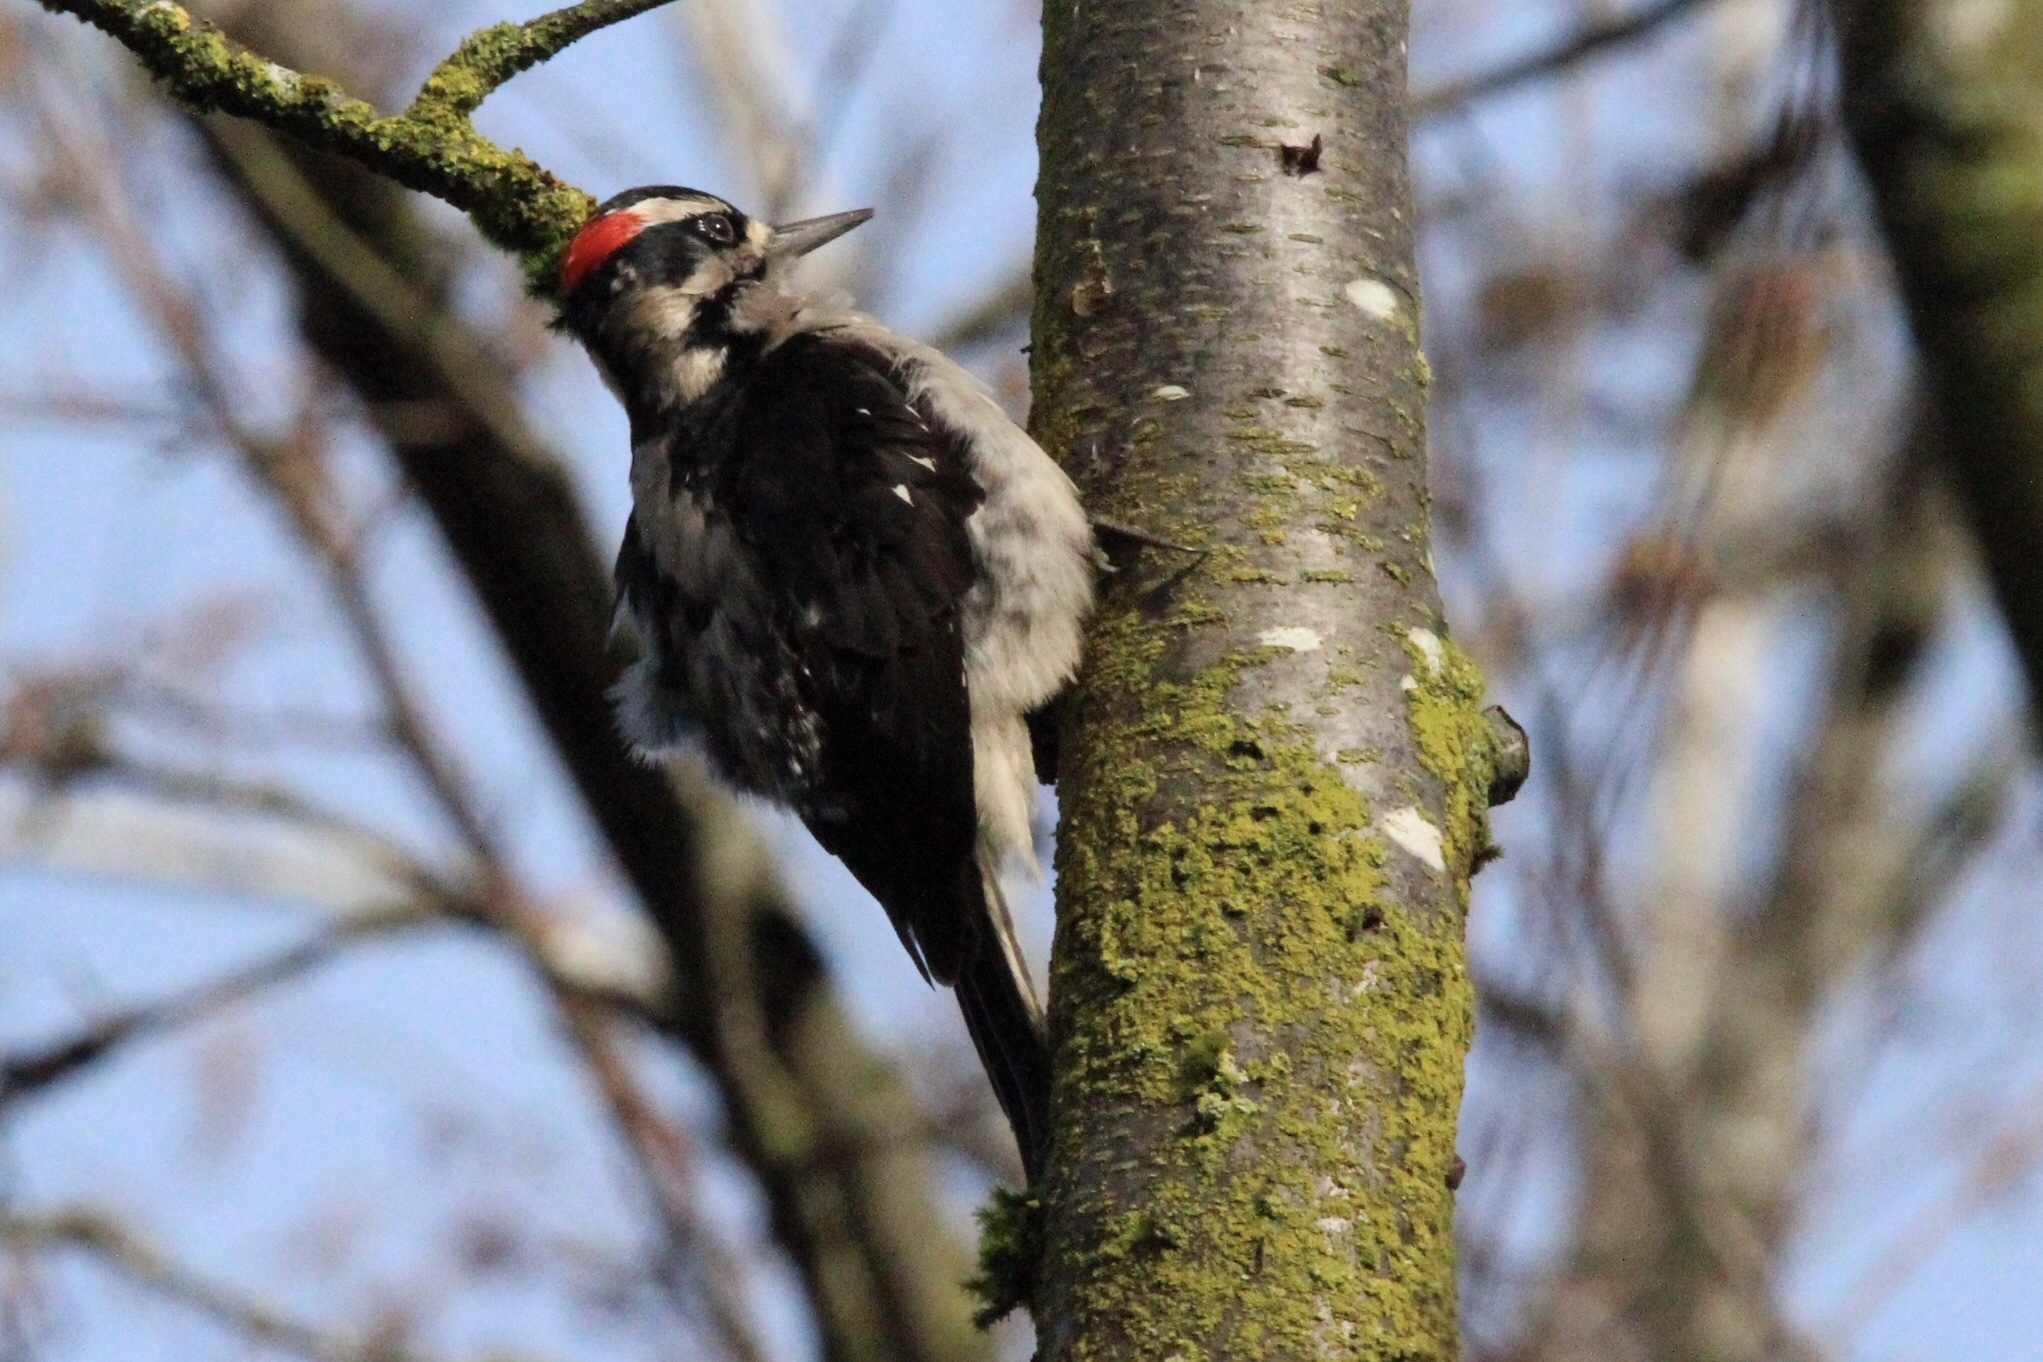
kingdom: Animalia
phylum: Chordata
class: Aves
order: Piciformes
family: Picidae
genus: Leuconotopicus
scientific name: Leuconotopicus villosus
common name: Hairy woodpecker
